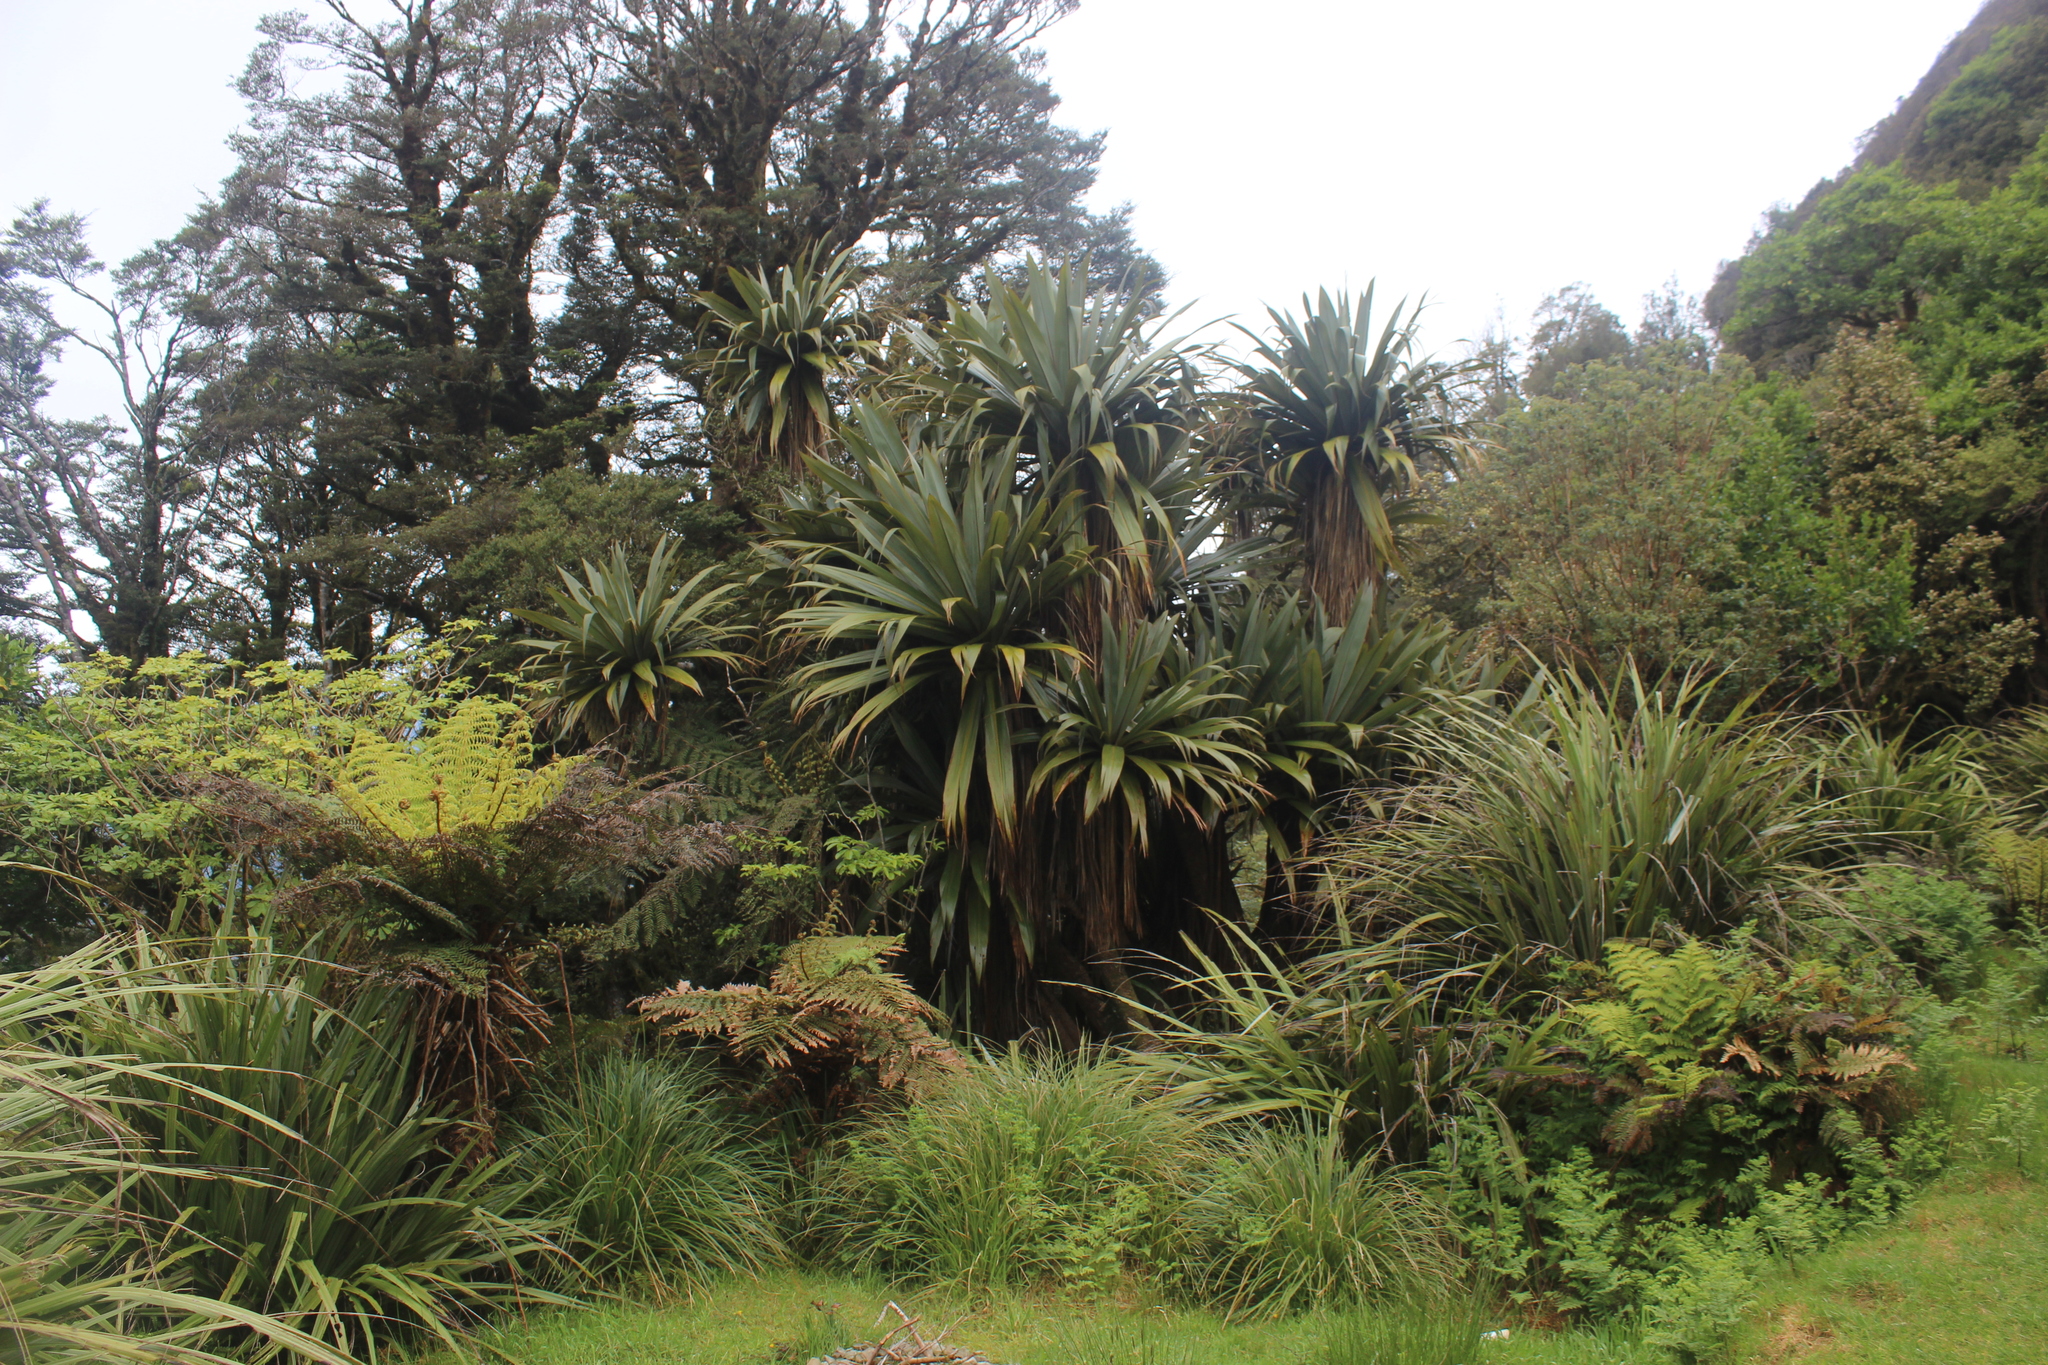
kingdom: Plantae
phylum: Tracheophyta
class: Liliopsida
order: Asparagales
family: Asparagaceae
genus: Cordyline
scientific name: Cordyline indivisa
